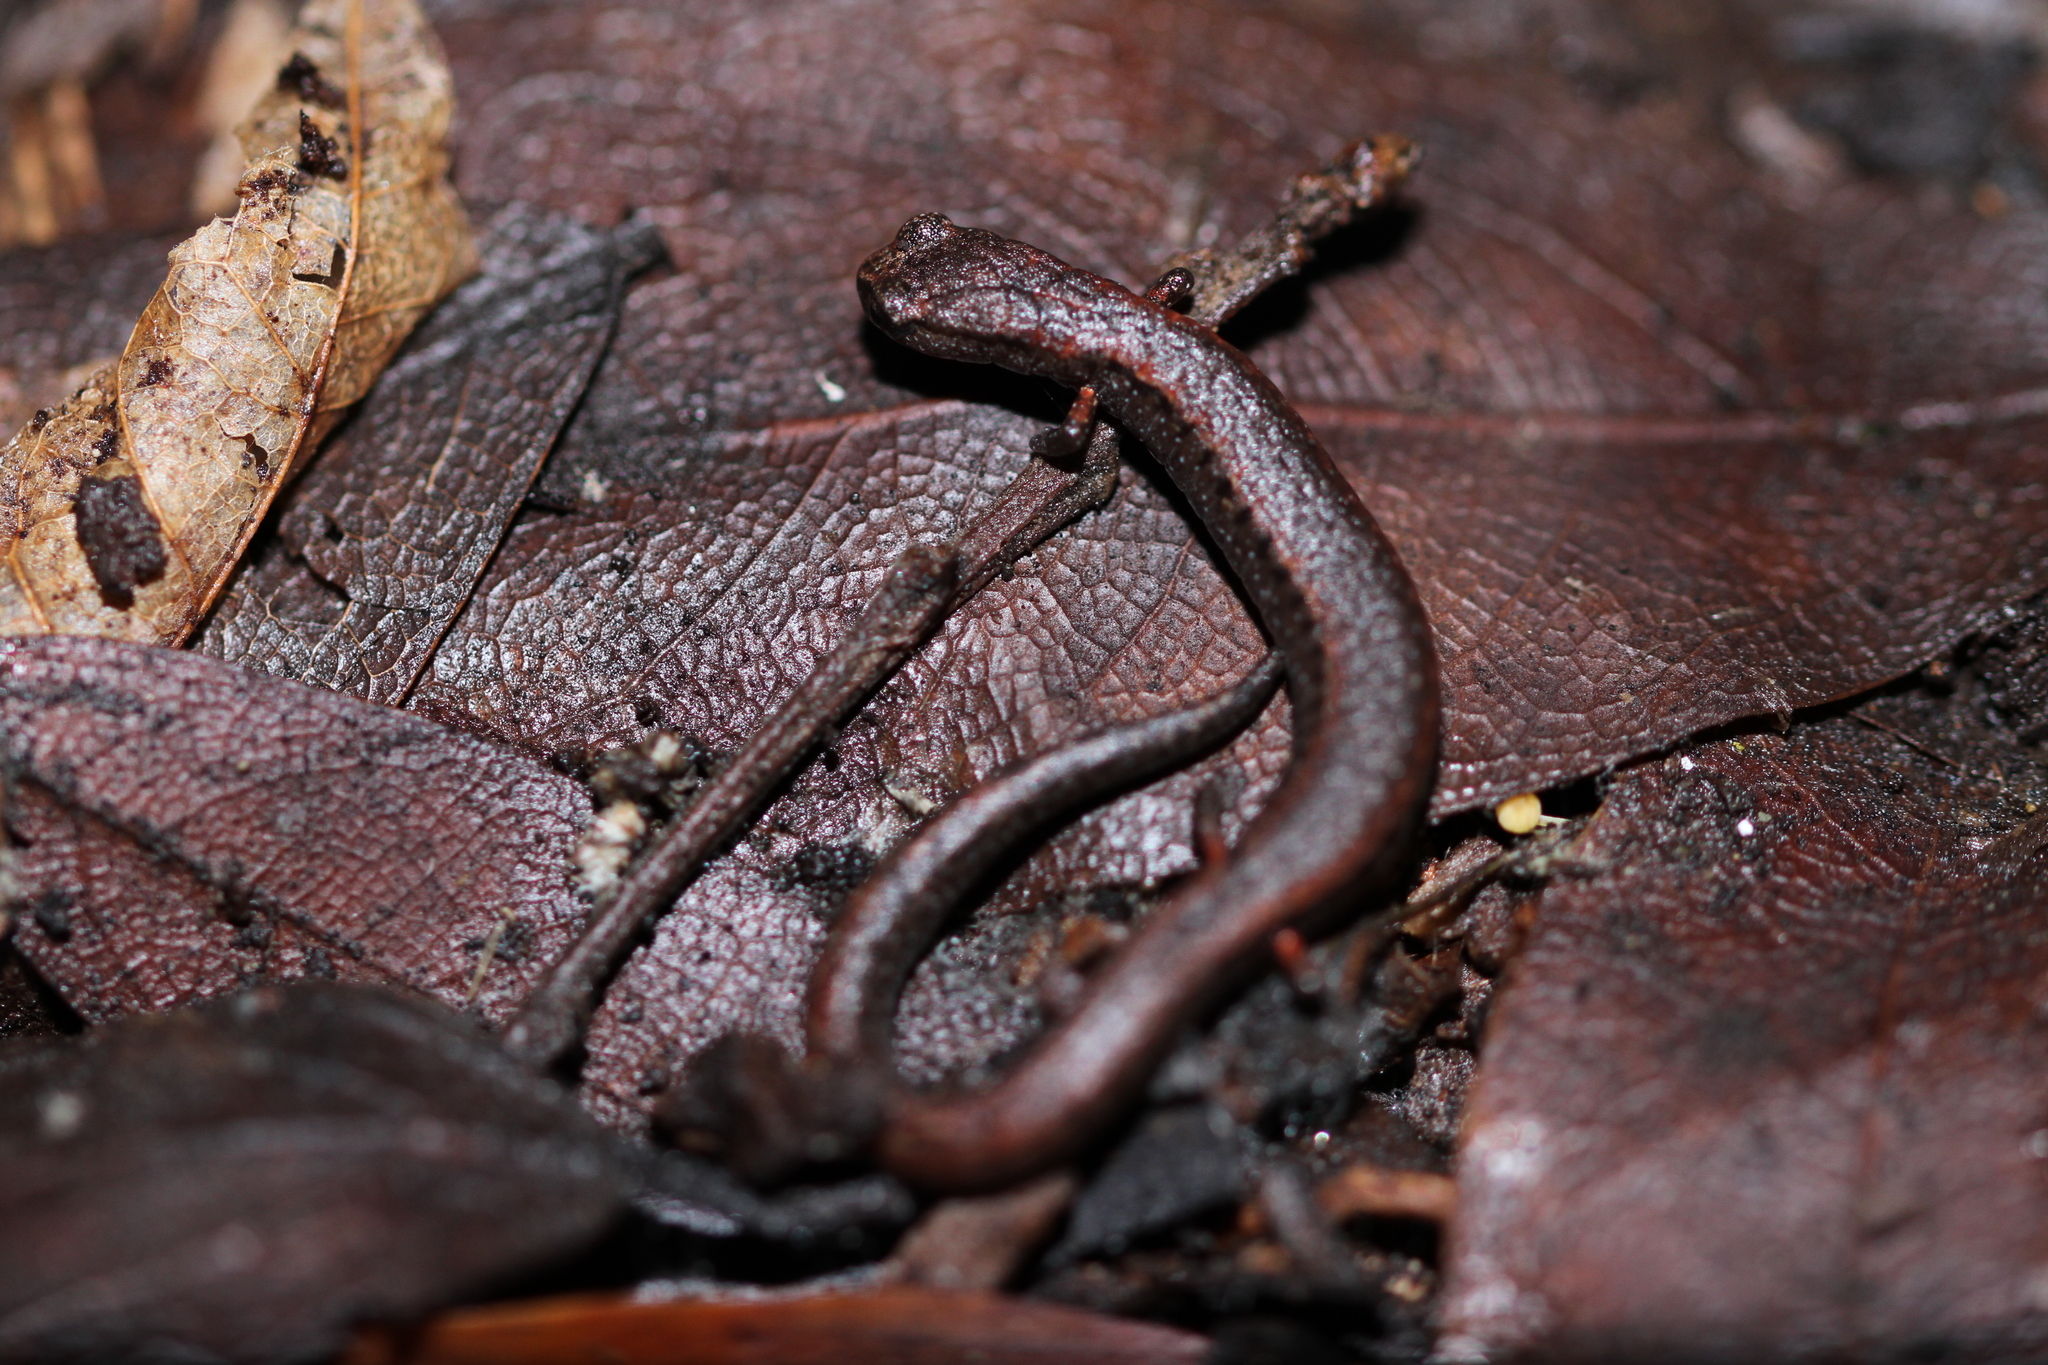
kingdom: Animalia
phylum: Chordata
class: Amphibia
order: Caudata
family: Plethodontidae
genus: Batrachoseps
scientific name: Batrachoseps attenuatus
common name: California slender salamander
